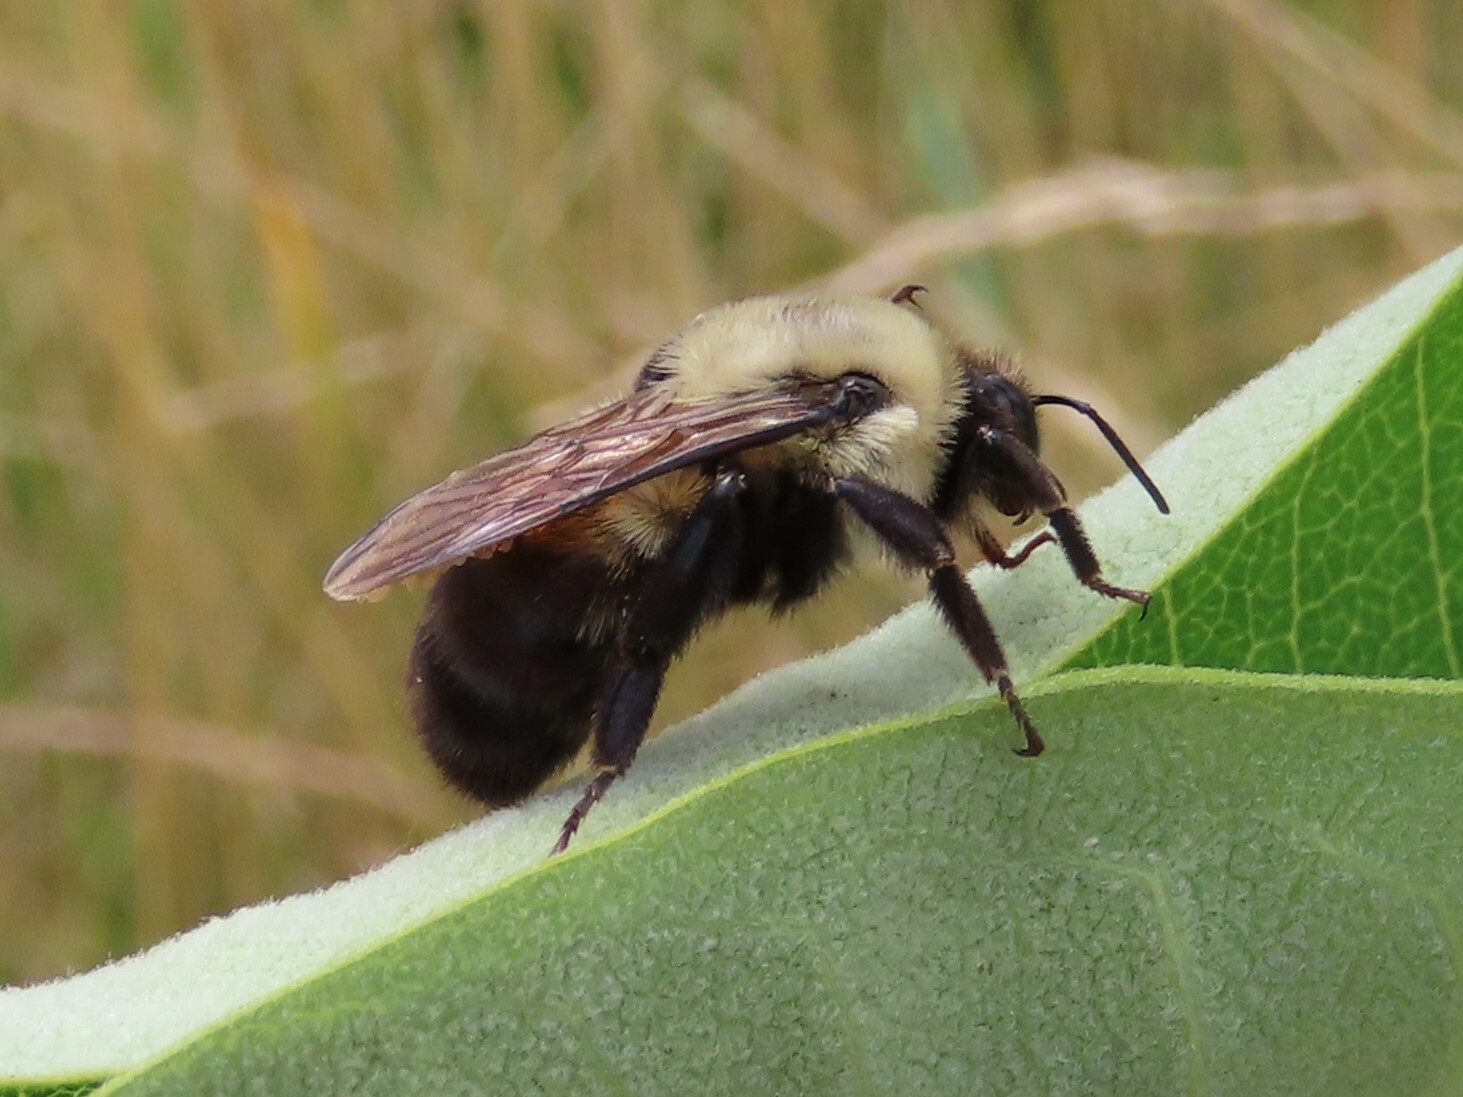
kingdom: Animalia
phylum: Arthropoda
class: Insecta
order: Hymenoptera
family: Apidae
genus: Bombus
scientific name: Bombus griseocollis
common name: Brown-belted bumble bee
